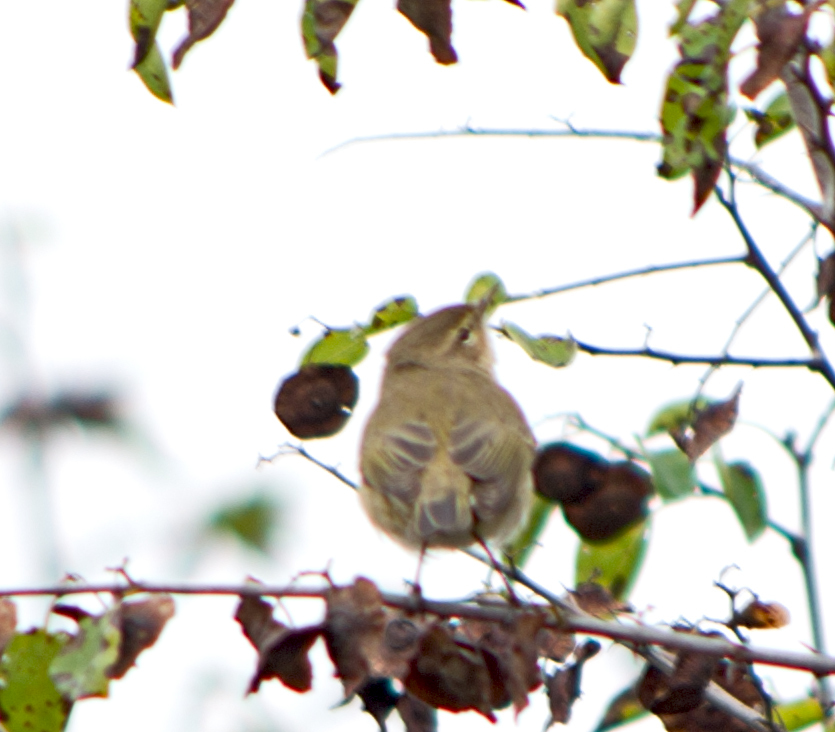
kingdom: Animalia
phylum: Chordata
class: Aves
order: Passeriformes
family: Phylloscopidae
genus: Phylloscopus
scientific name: Phylloscopus collybita
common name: Common chiffchaff
